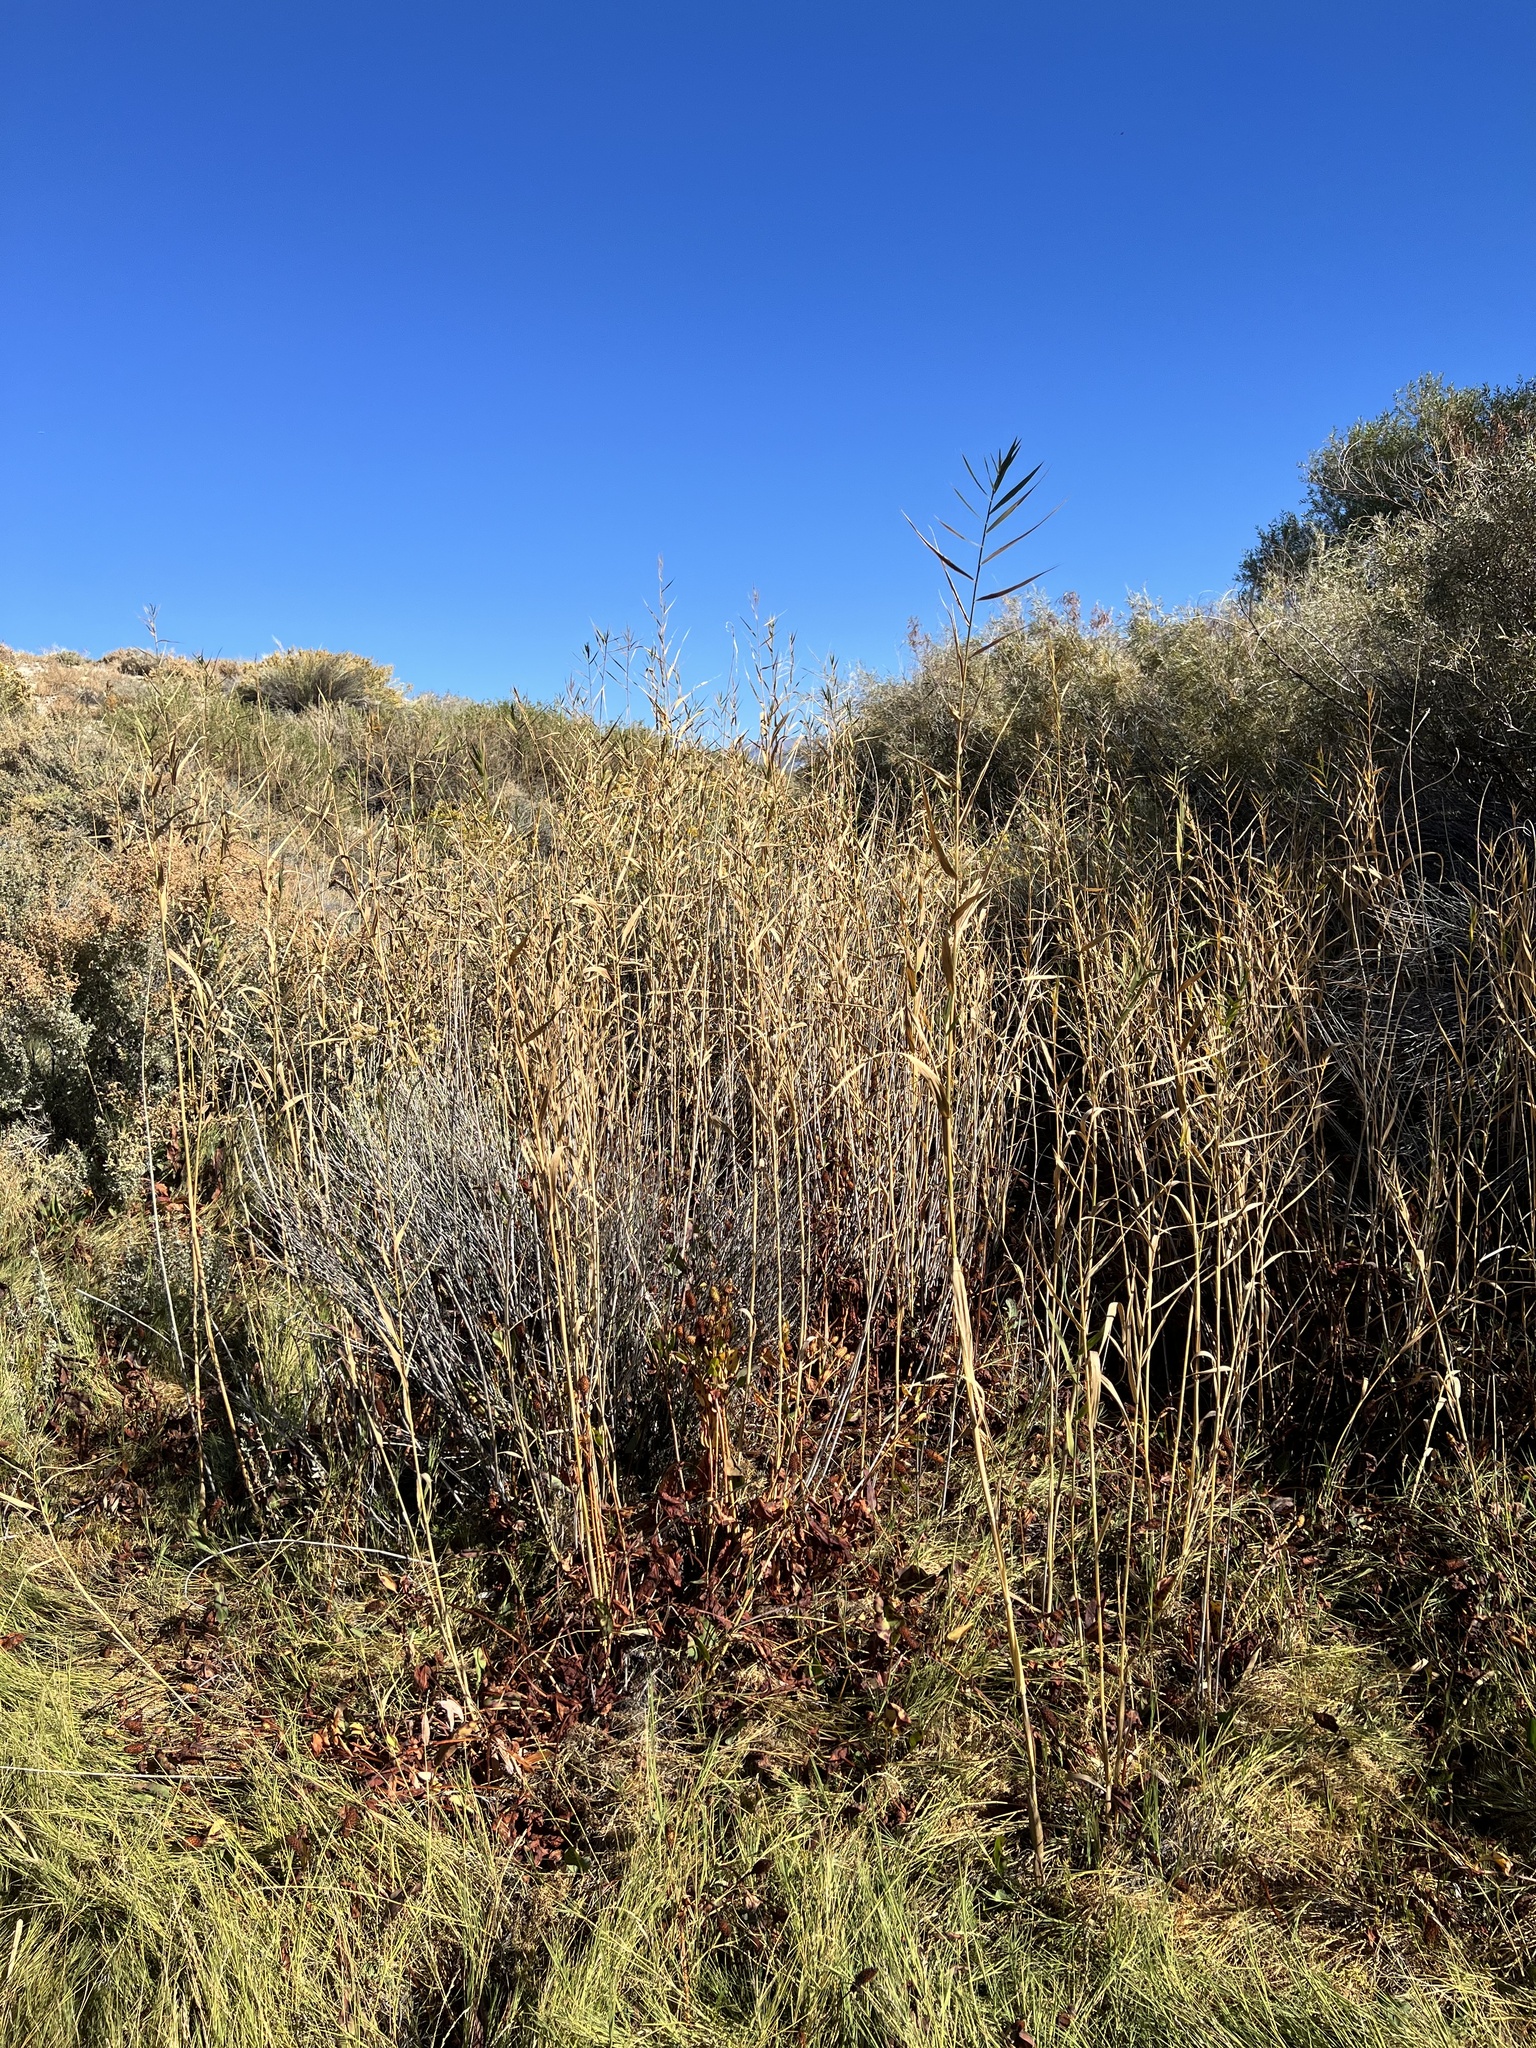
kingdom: Plantae
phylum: Tracheophyta
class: Liliopsida
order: Poales
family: Poaceae
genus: Phragmites
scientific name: Phragmites australis
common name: Common reed
